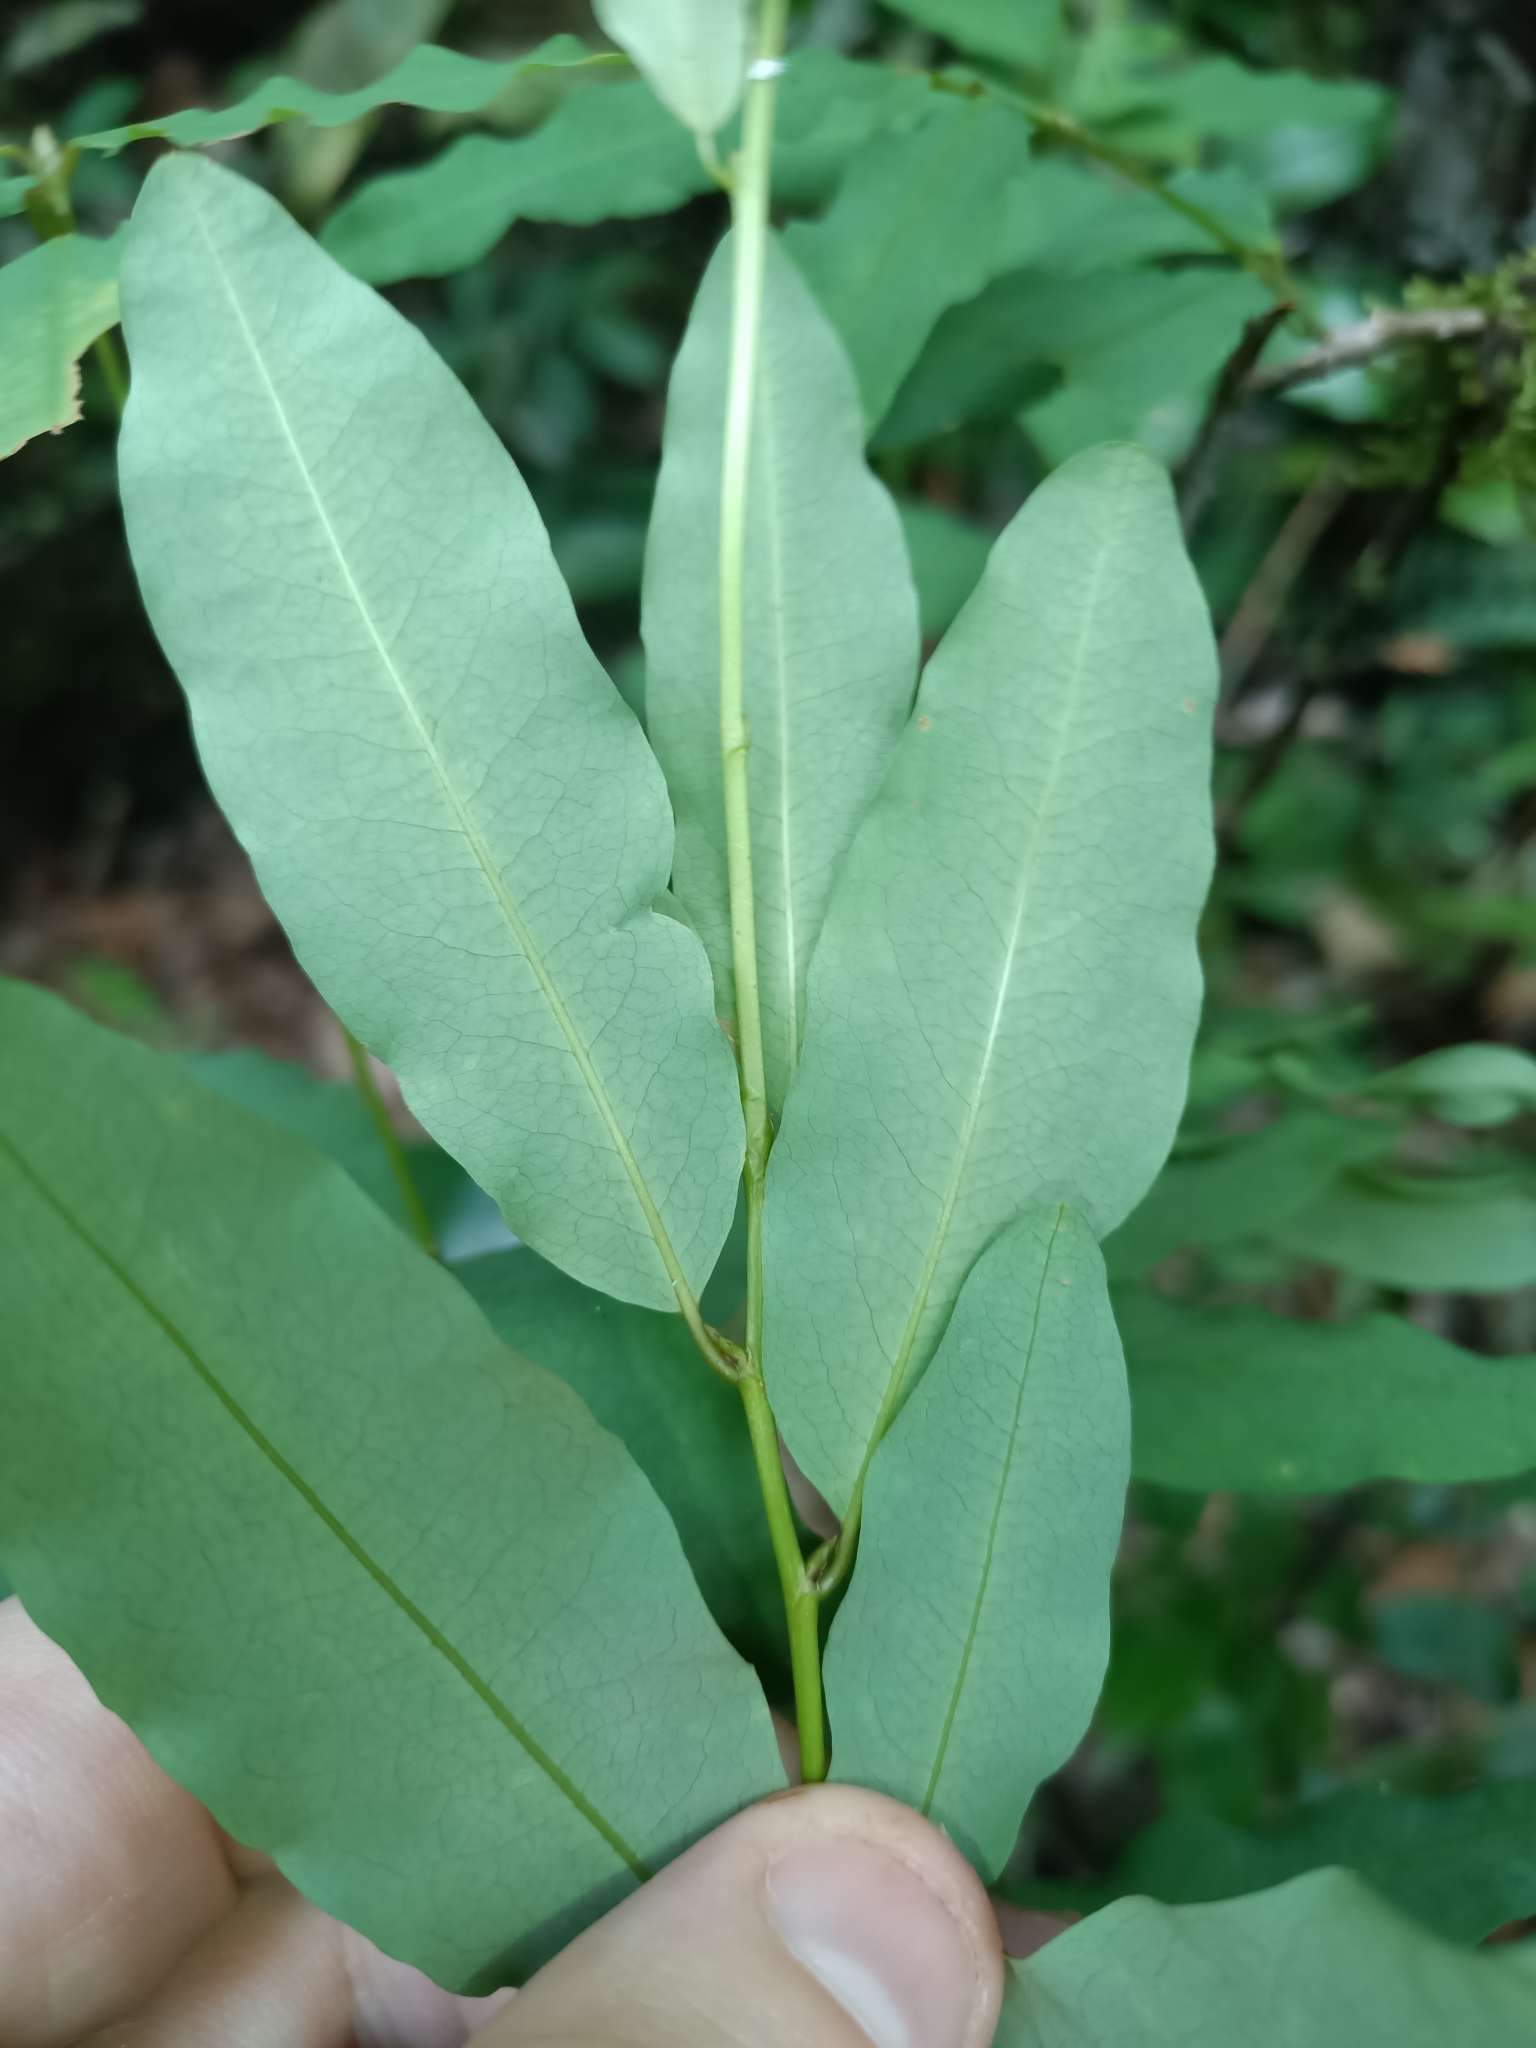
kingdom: Plantae
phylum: Tracheophyta
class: Magnoliopsida
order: Malpighiales
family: Erythroxylaceae
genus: Erythroxylum
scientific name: Erythroxylum ligustrinum
